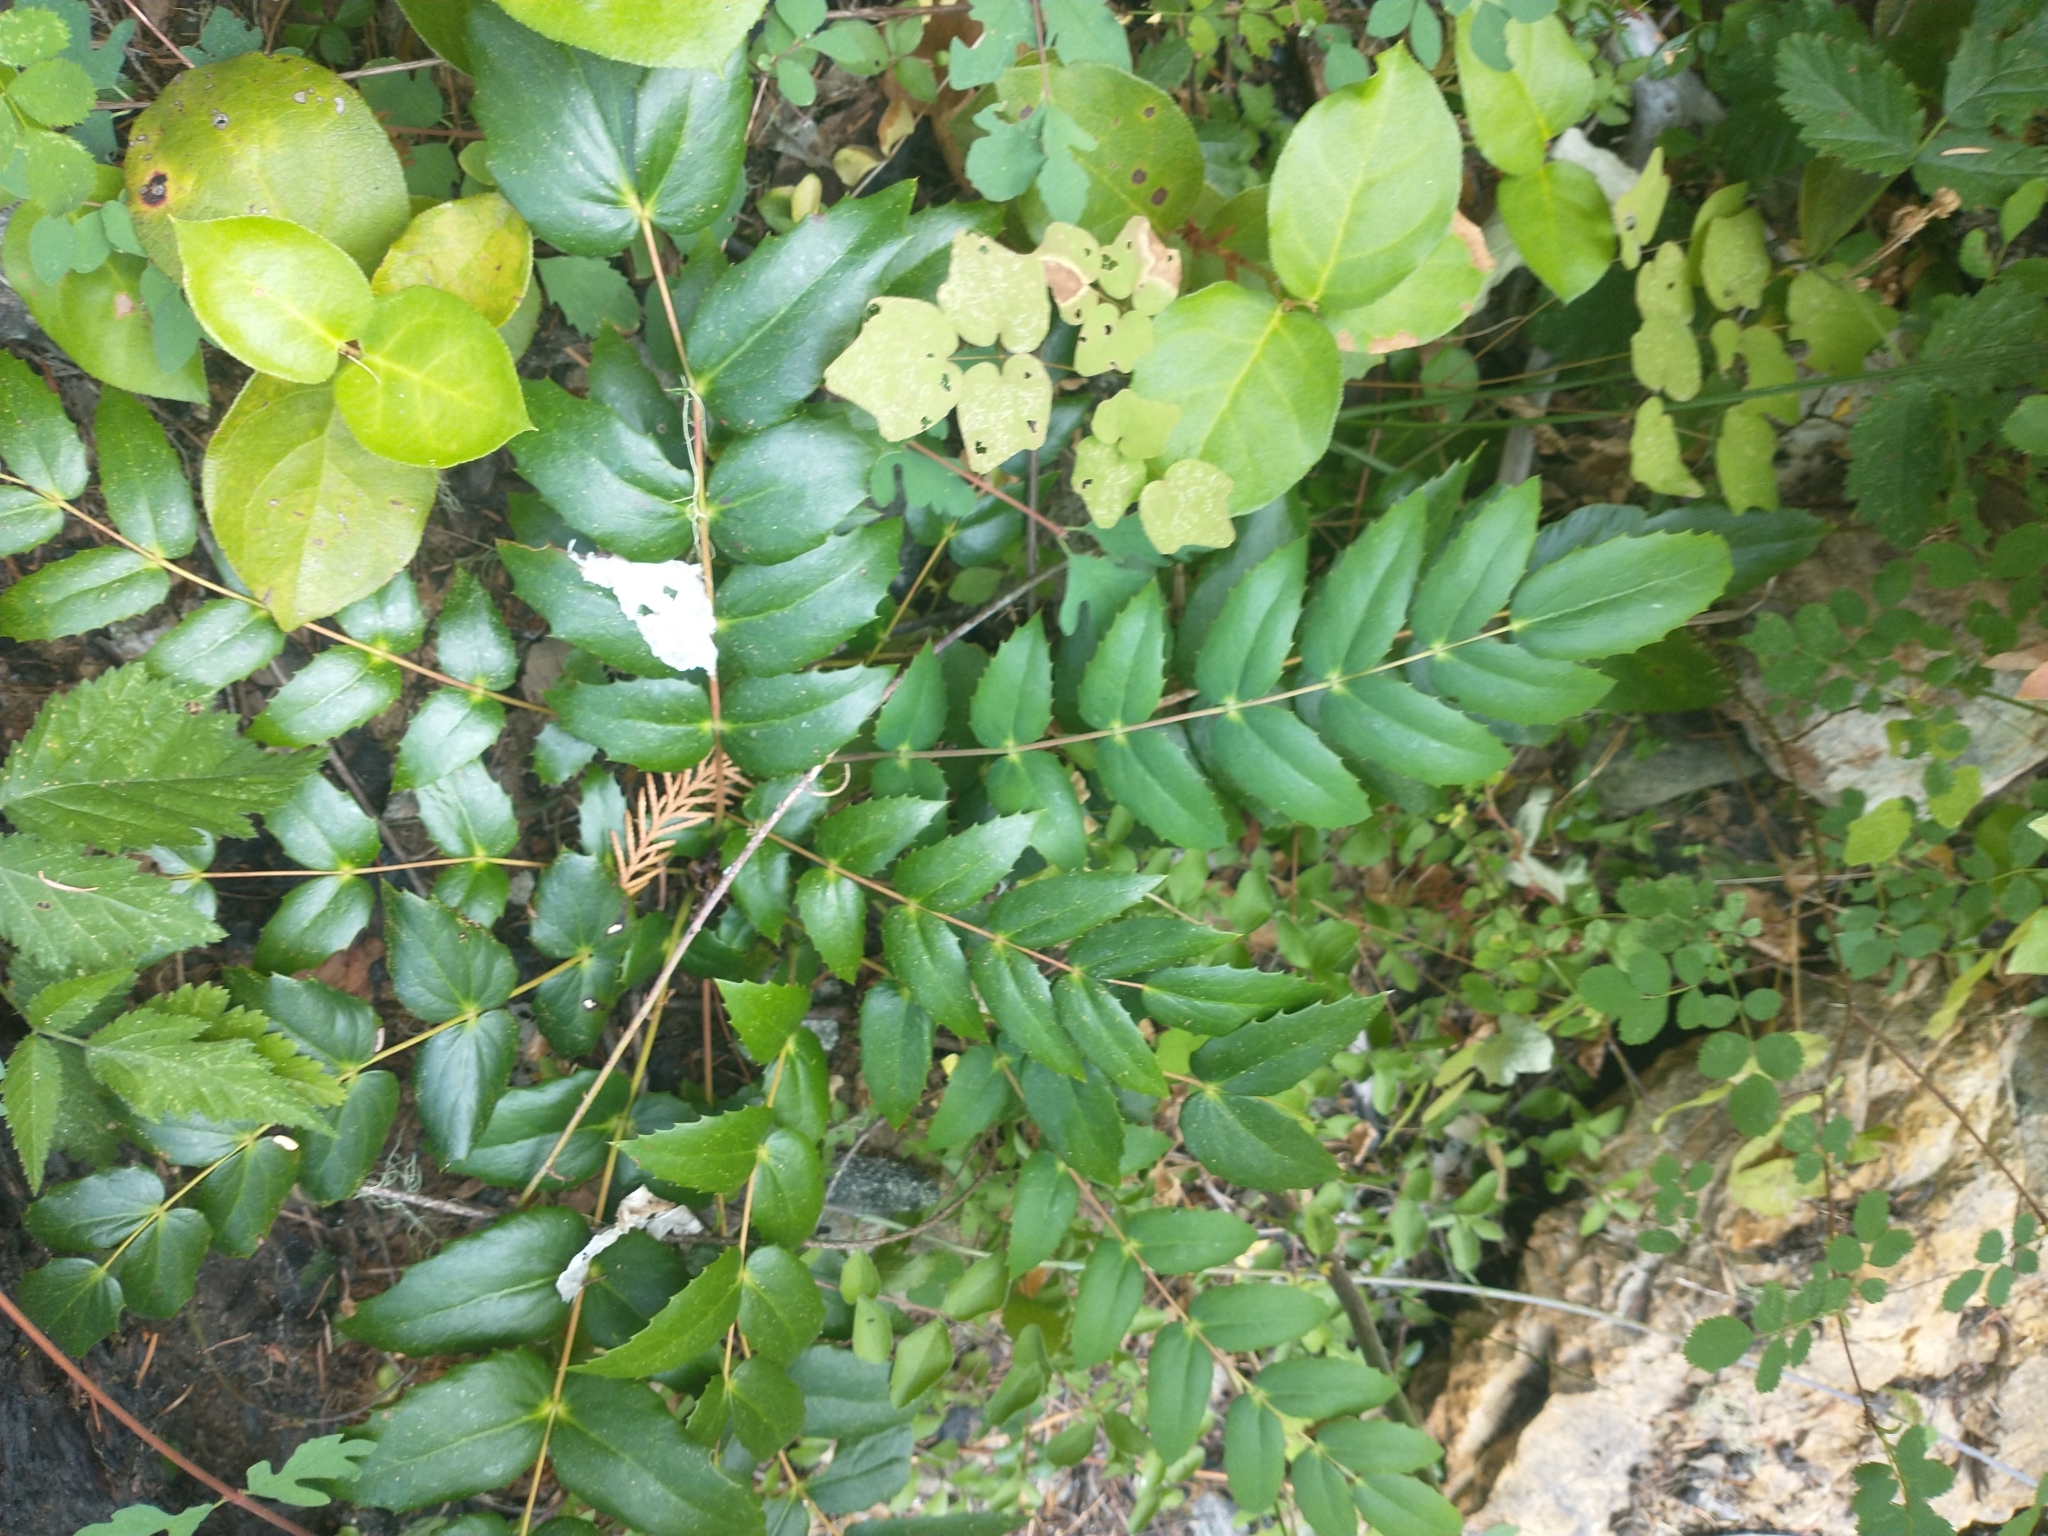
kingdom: Plantae
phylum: Tracheophyta
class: Magnoliopsida
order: Ericales
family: Ericaceae
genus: Gaultheria
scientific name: Gaultheria shallon
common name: Shallon
